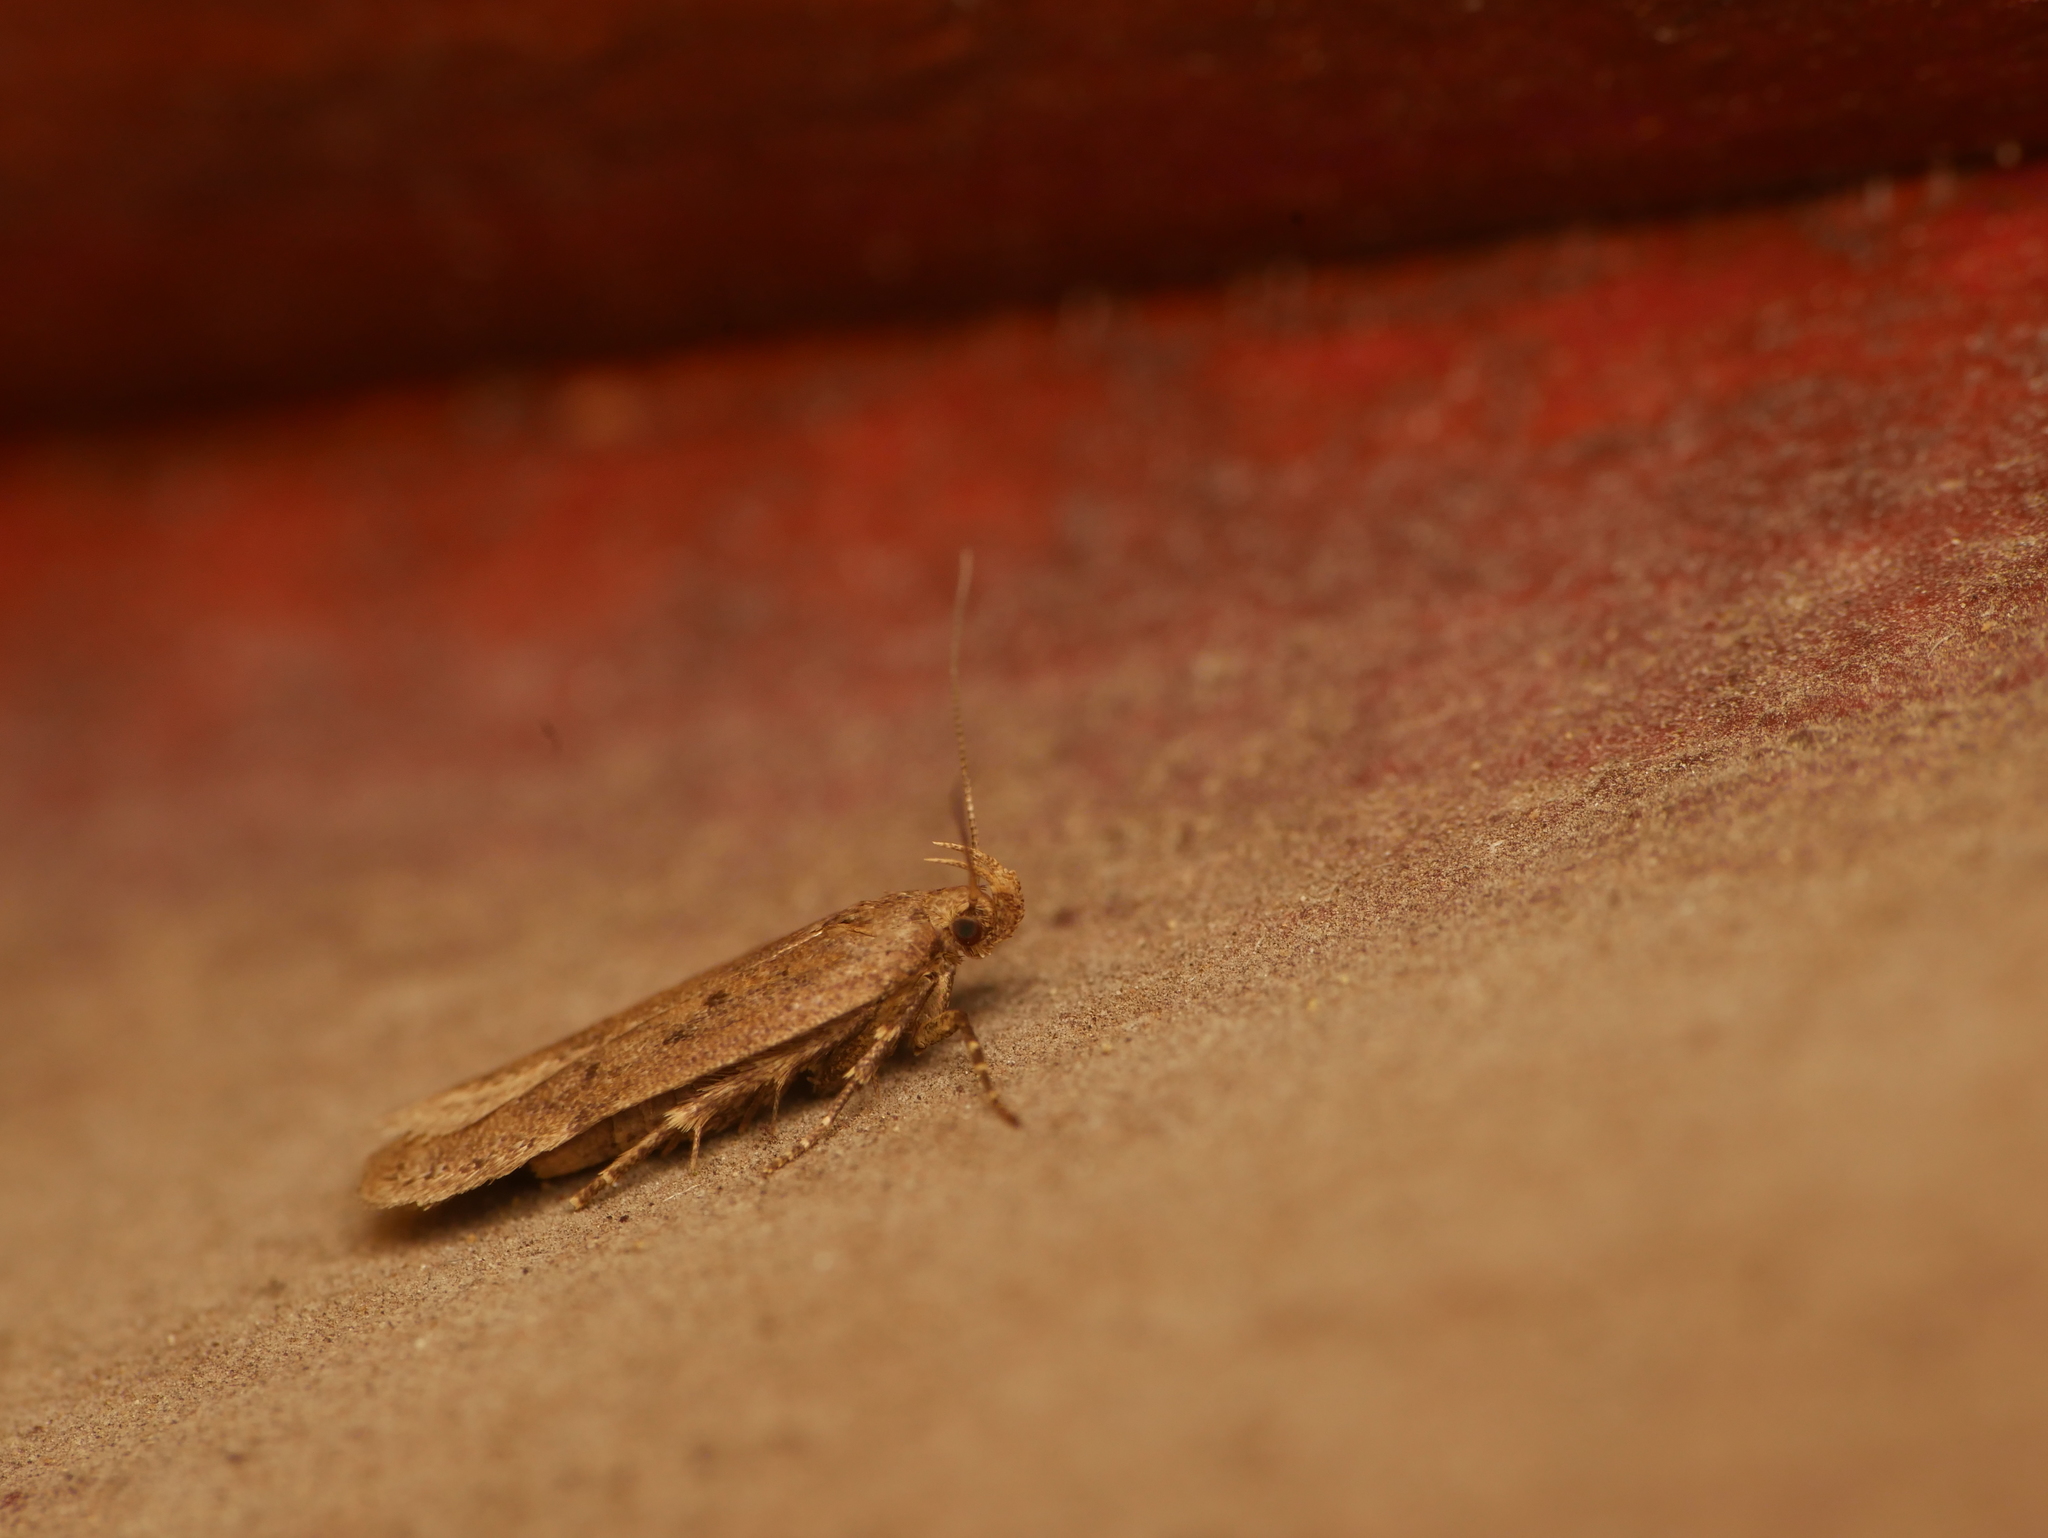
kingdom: Animalia
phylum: Arthropoda
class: Insecta
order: Lepidoptera
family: Oecophoridae
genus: Hofmannophila
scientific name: Hofmannophila pseudospretella
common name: Brown house moth
